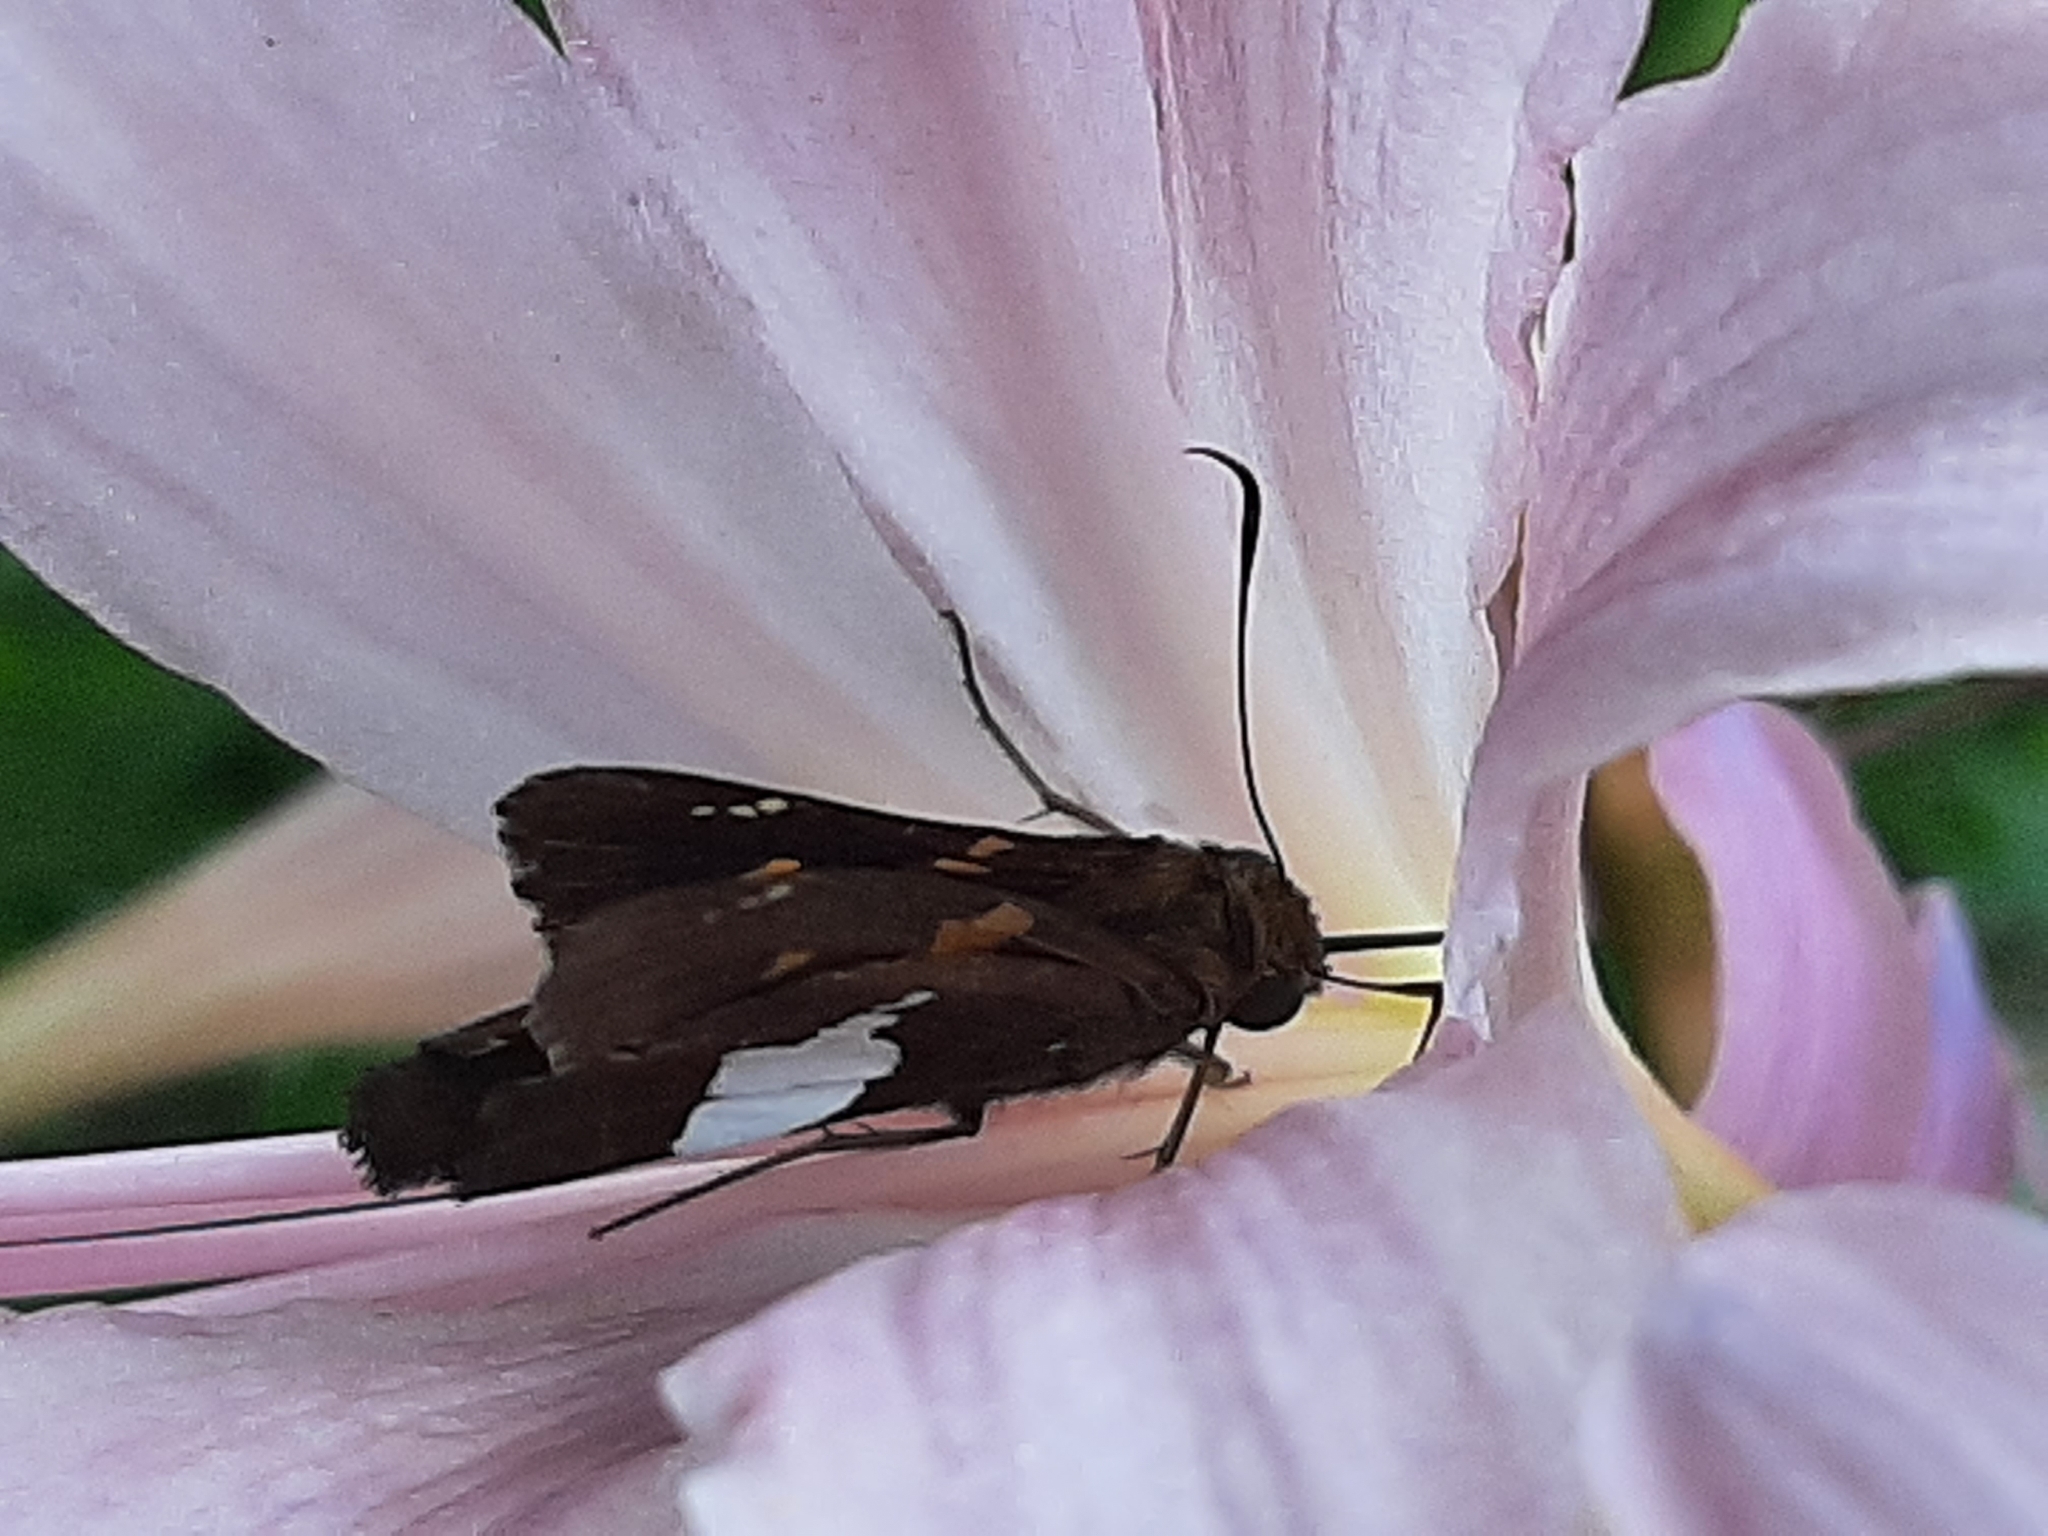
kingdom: Animalia
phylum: Arthropoda
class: Insecta
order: Lepidoptera
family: Hesperiidae
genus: Epargyreus
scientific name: Epargyreus clarus
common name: Silver-spotted skipper
